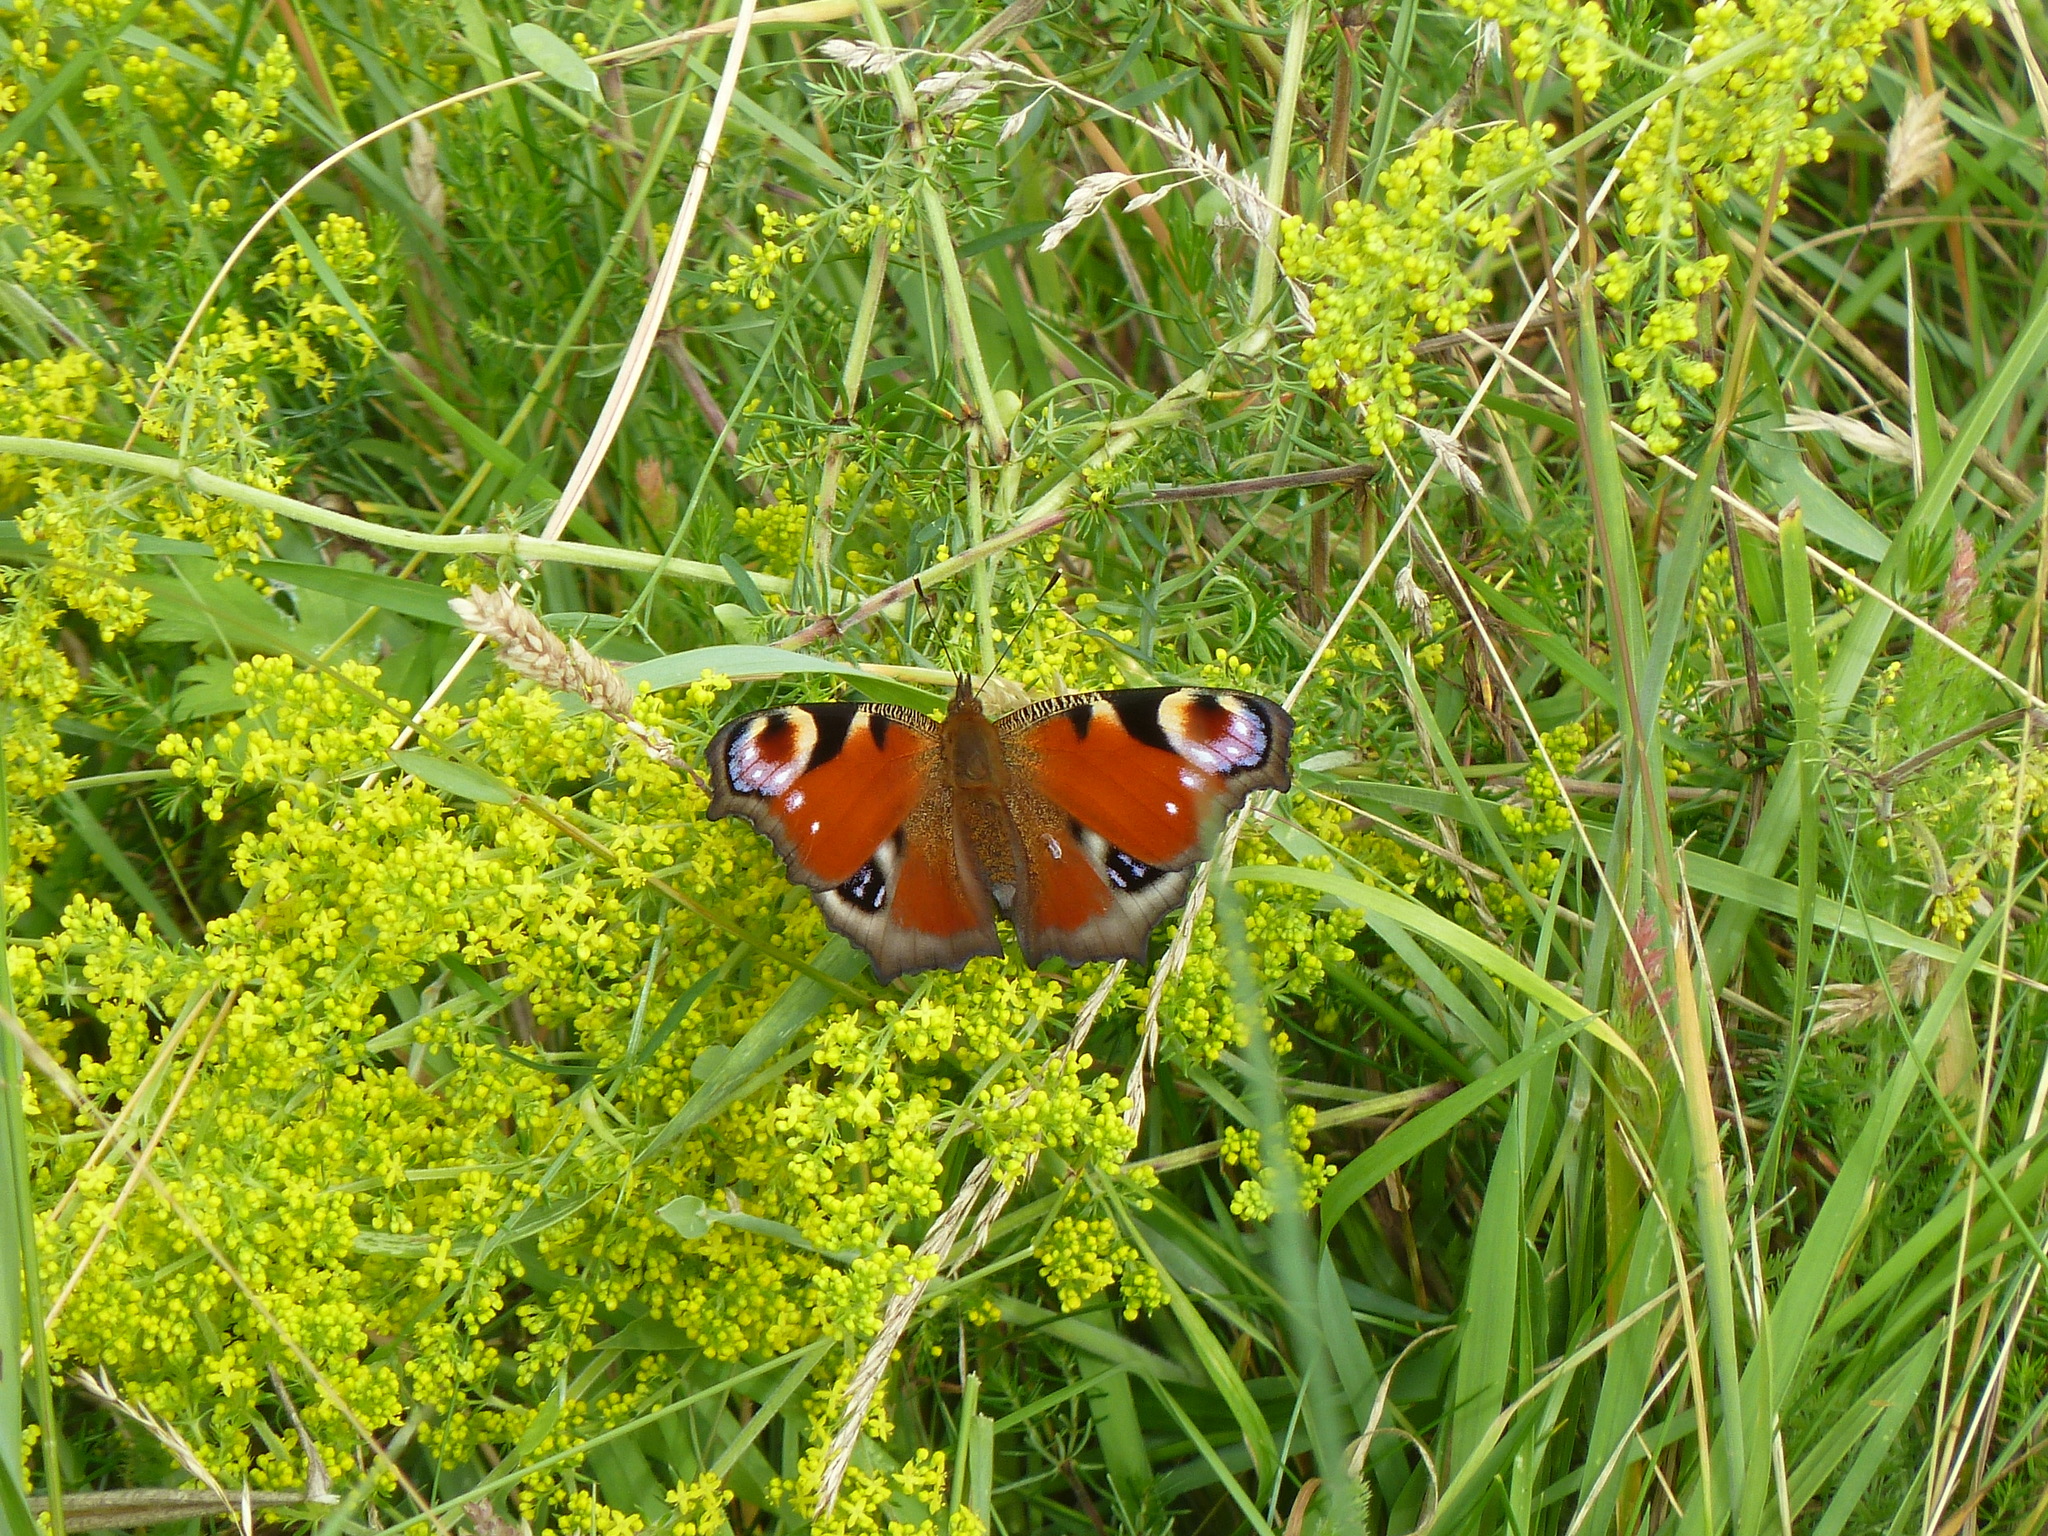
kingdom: Animalia
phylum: Arthropoda
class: Insecta
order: Lepidoptera
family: Nymphalidae
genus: Aglais
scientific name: Aglais io
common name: Peacock
